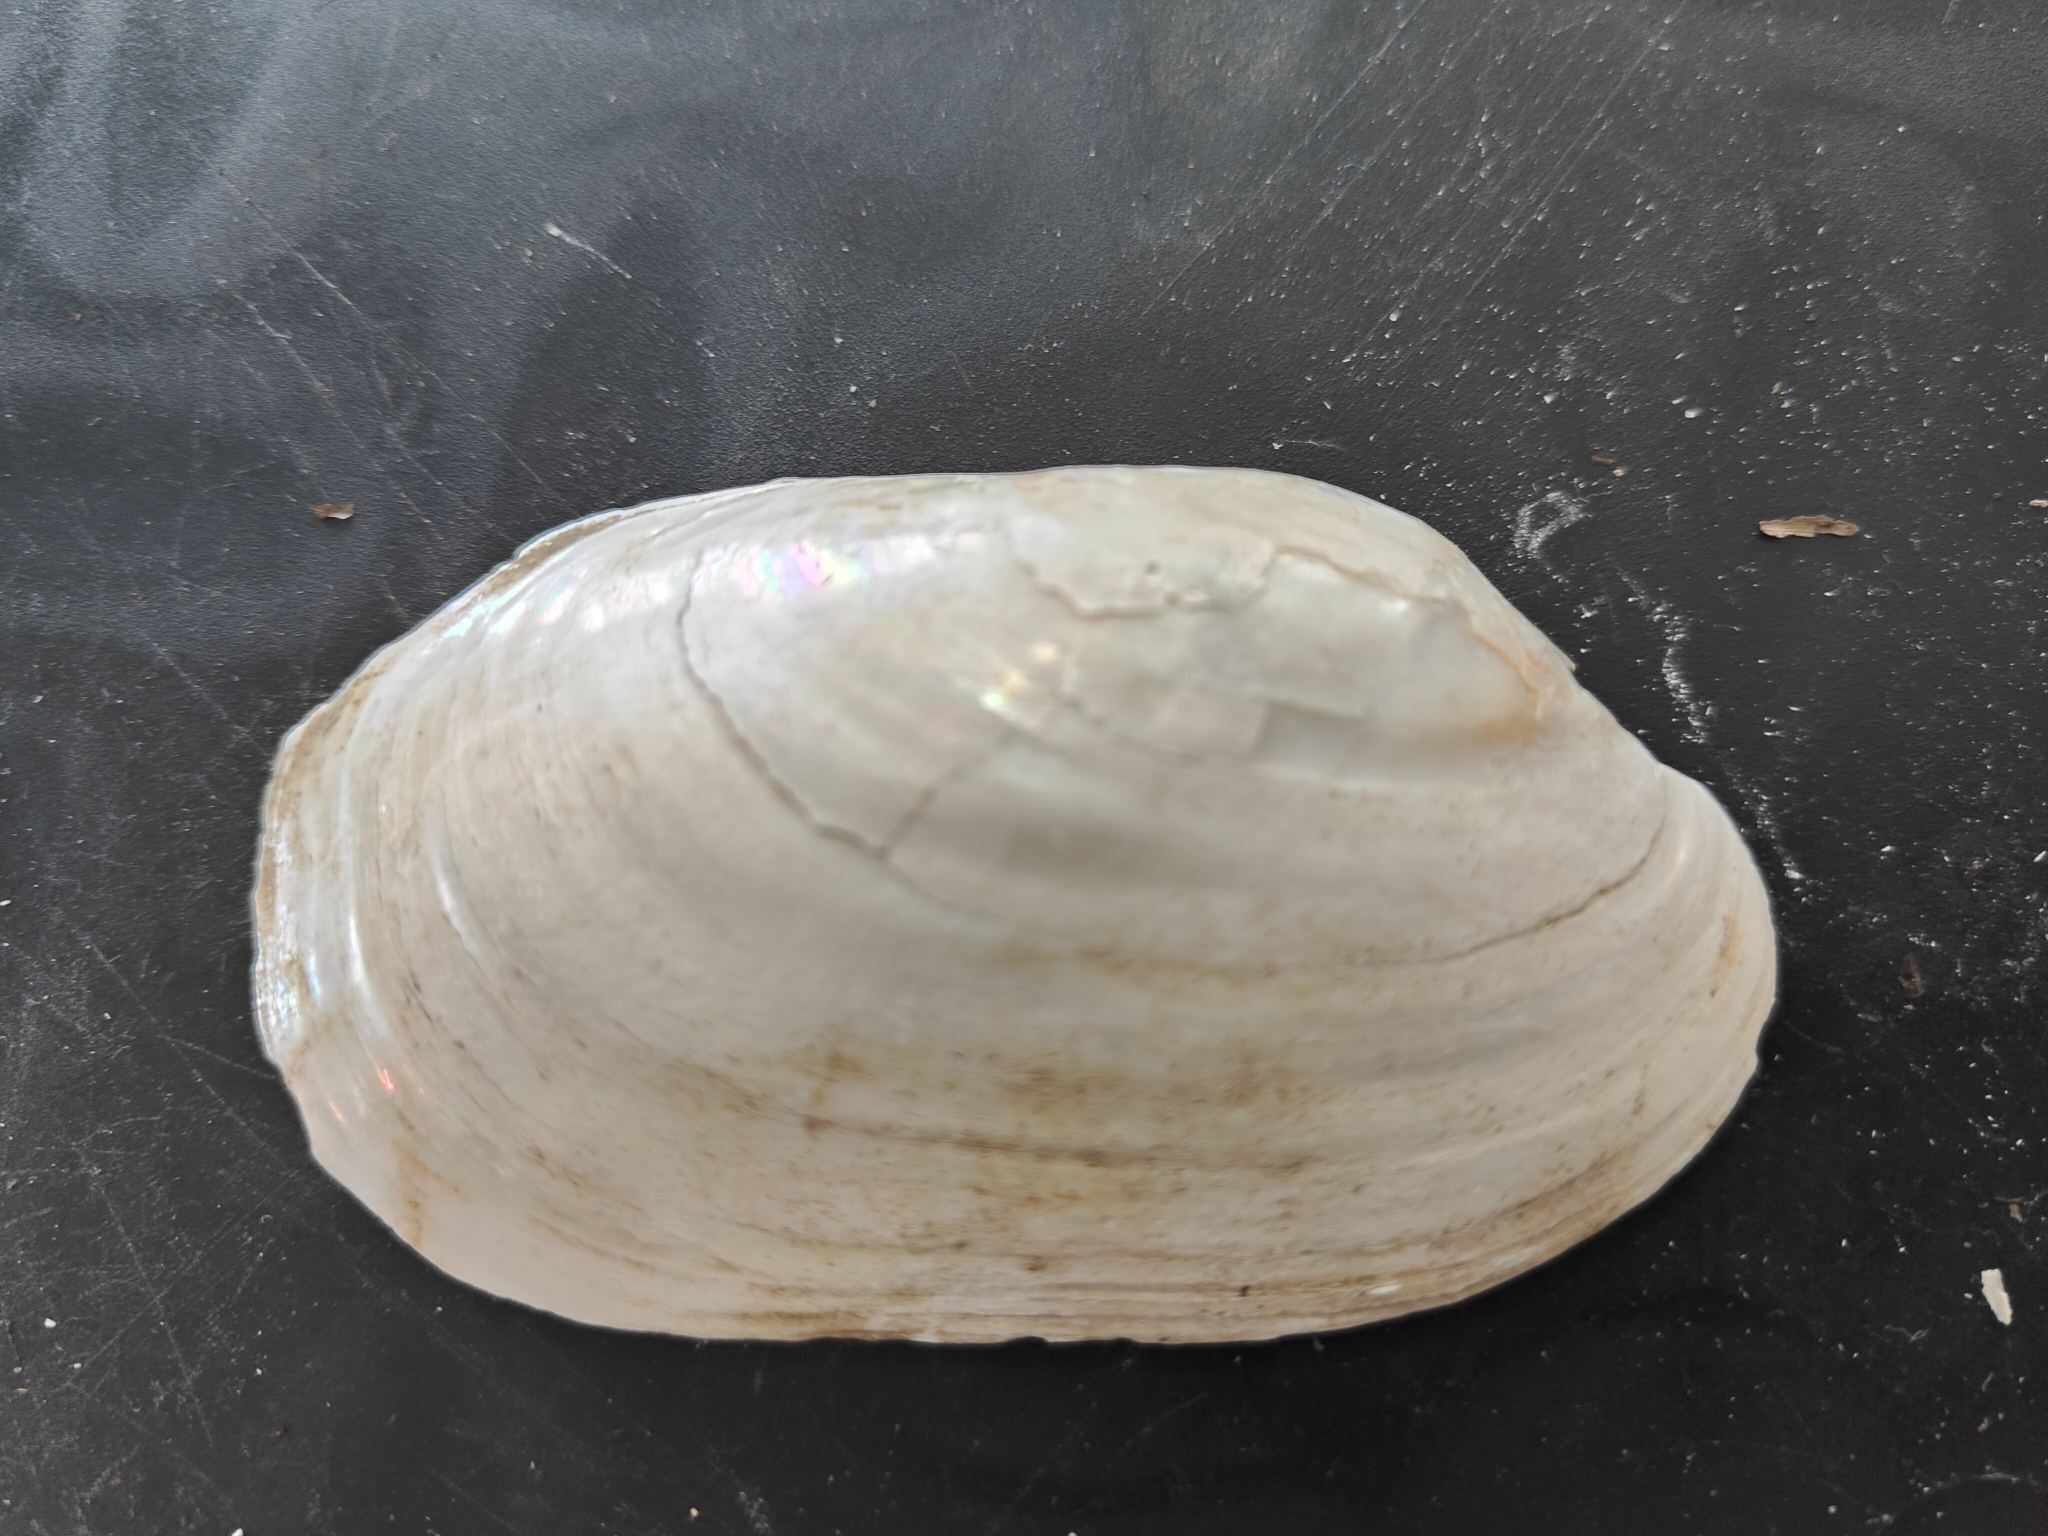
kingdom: Animalia
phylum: Mollusca
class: Bivalvia
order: Unionida
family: Unionidae
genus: Lampsilis
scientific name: Lampsilis siliquoidea
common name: Fatmucket
